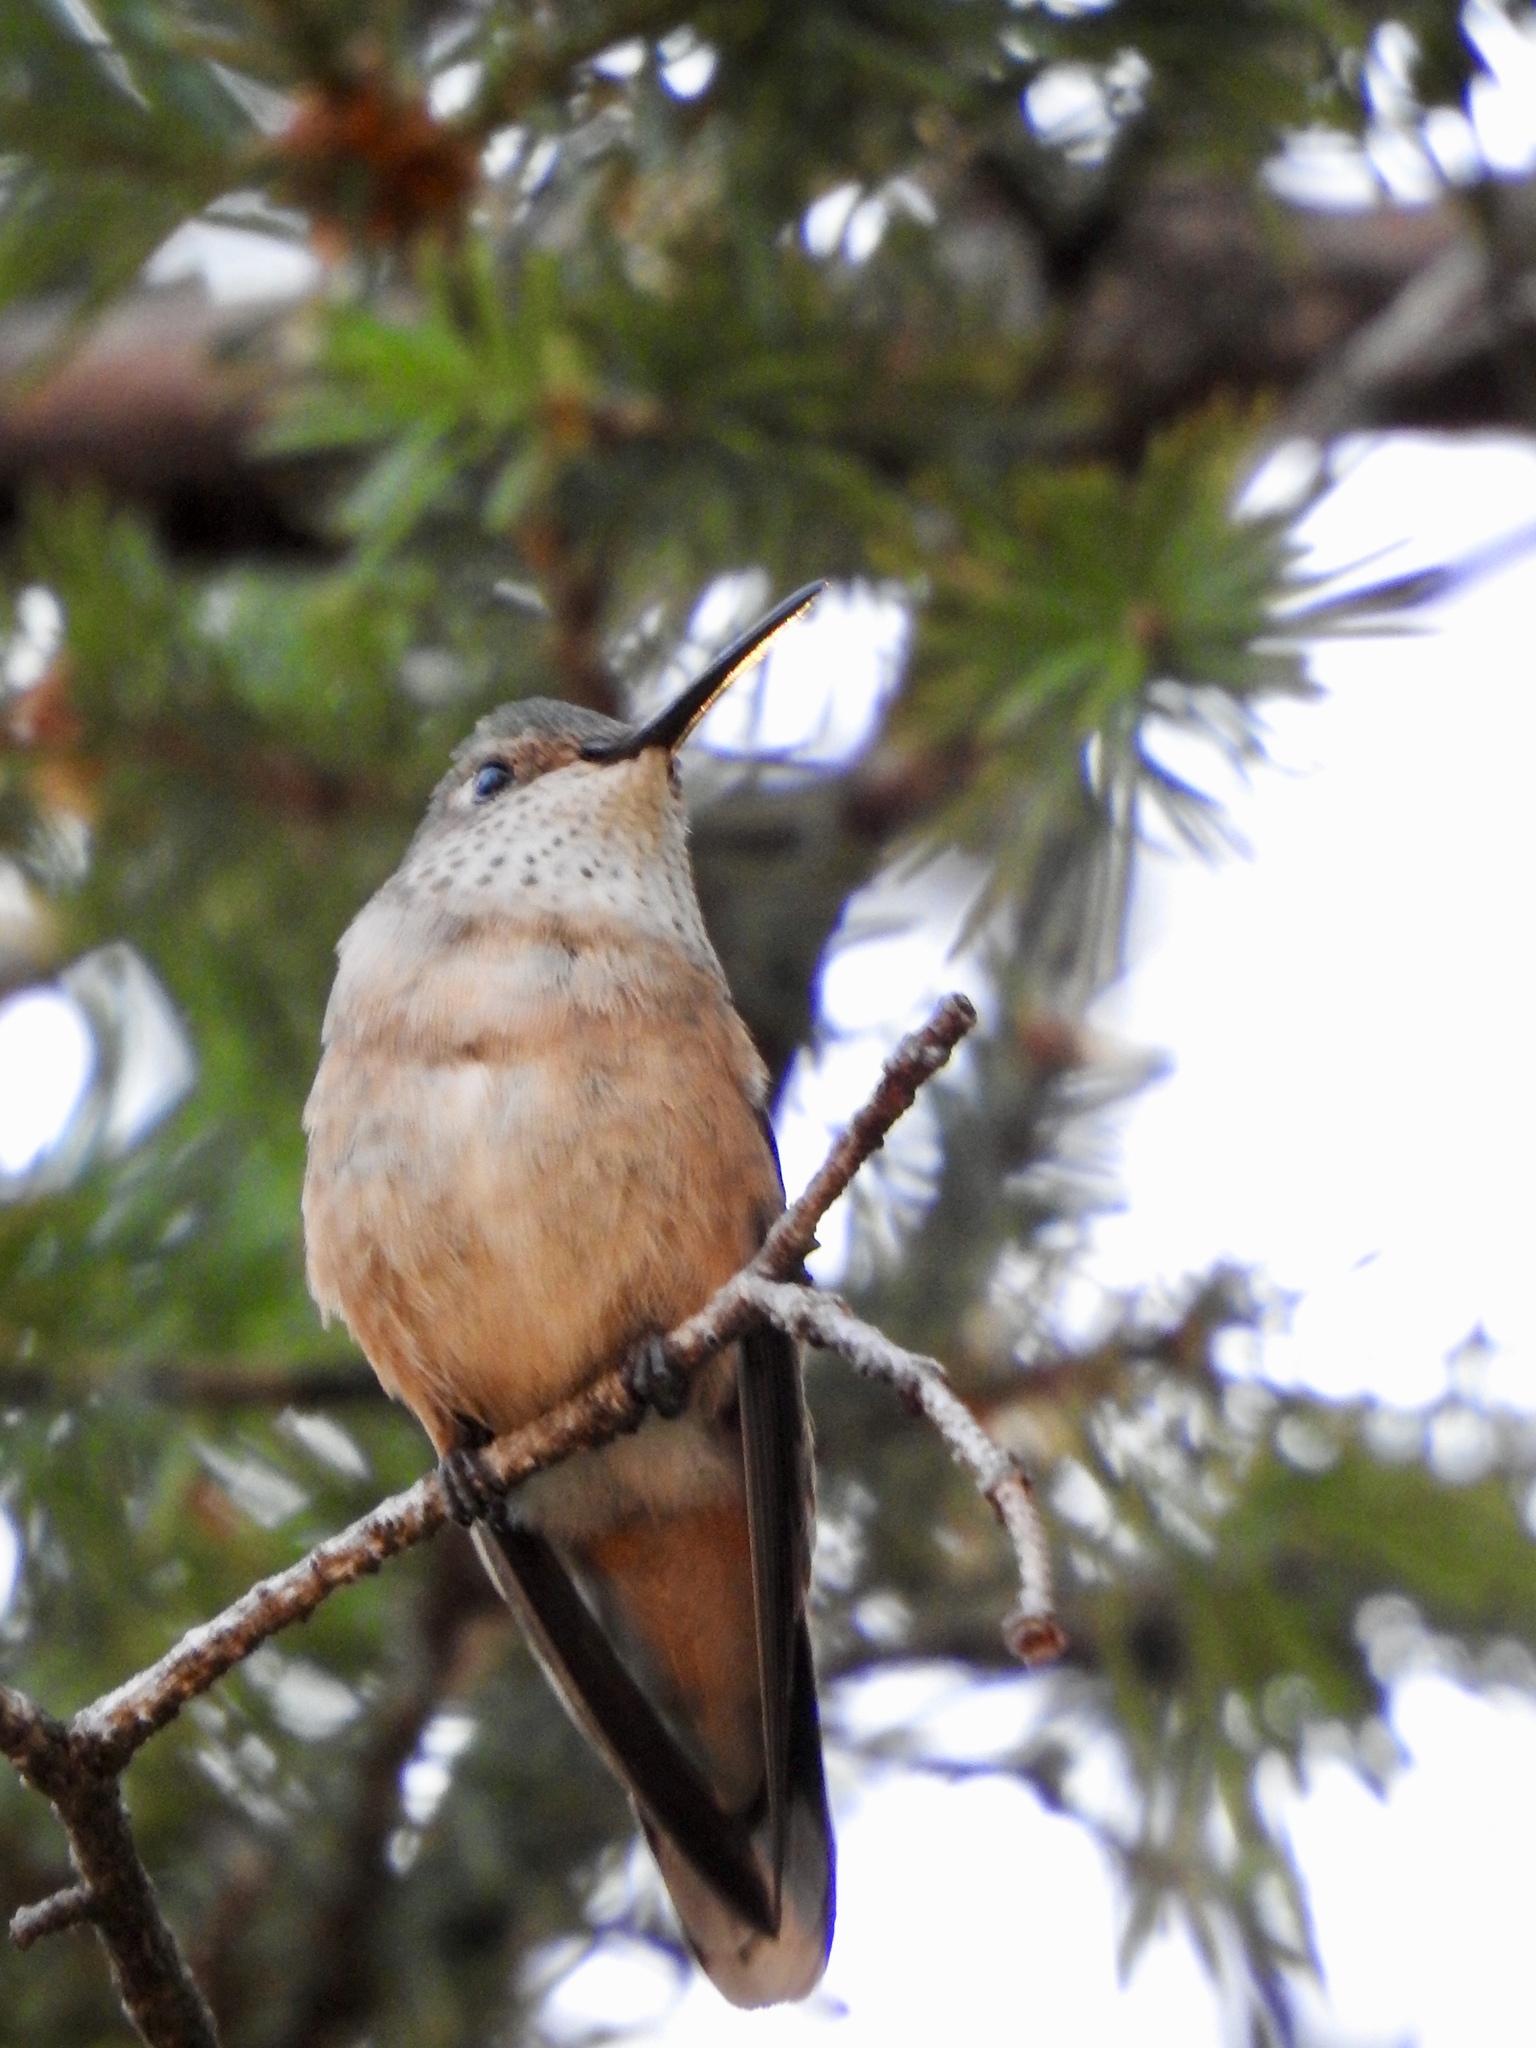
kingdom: Animalia
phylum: Chordata
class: Aves
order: Apodiformes
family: Trochilidae
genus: Selasphorus
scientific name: Selasphorus platycercus
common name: Broad-tailed hummingbird
